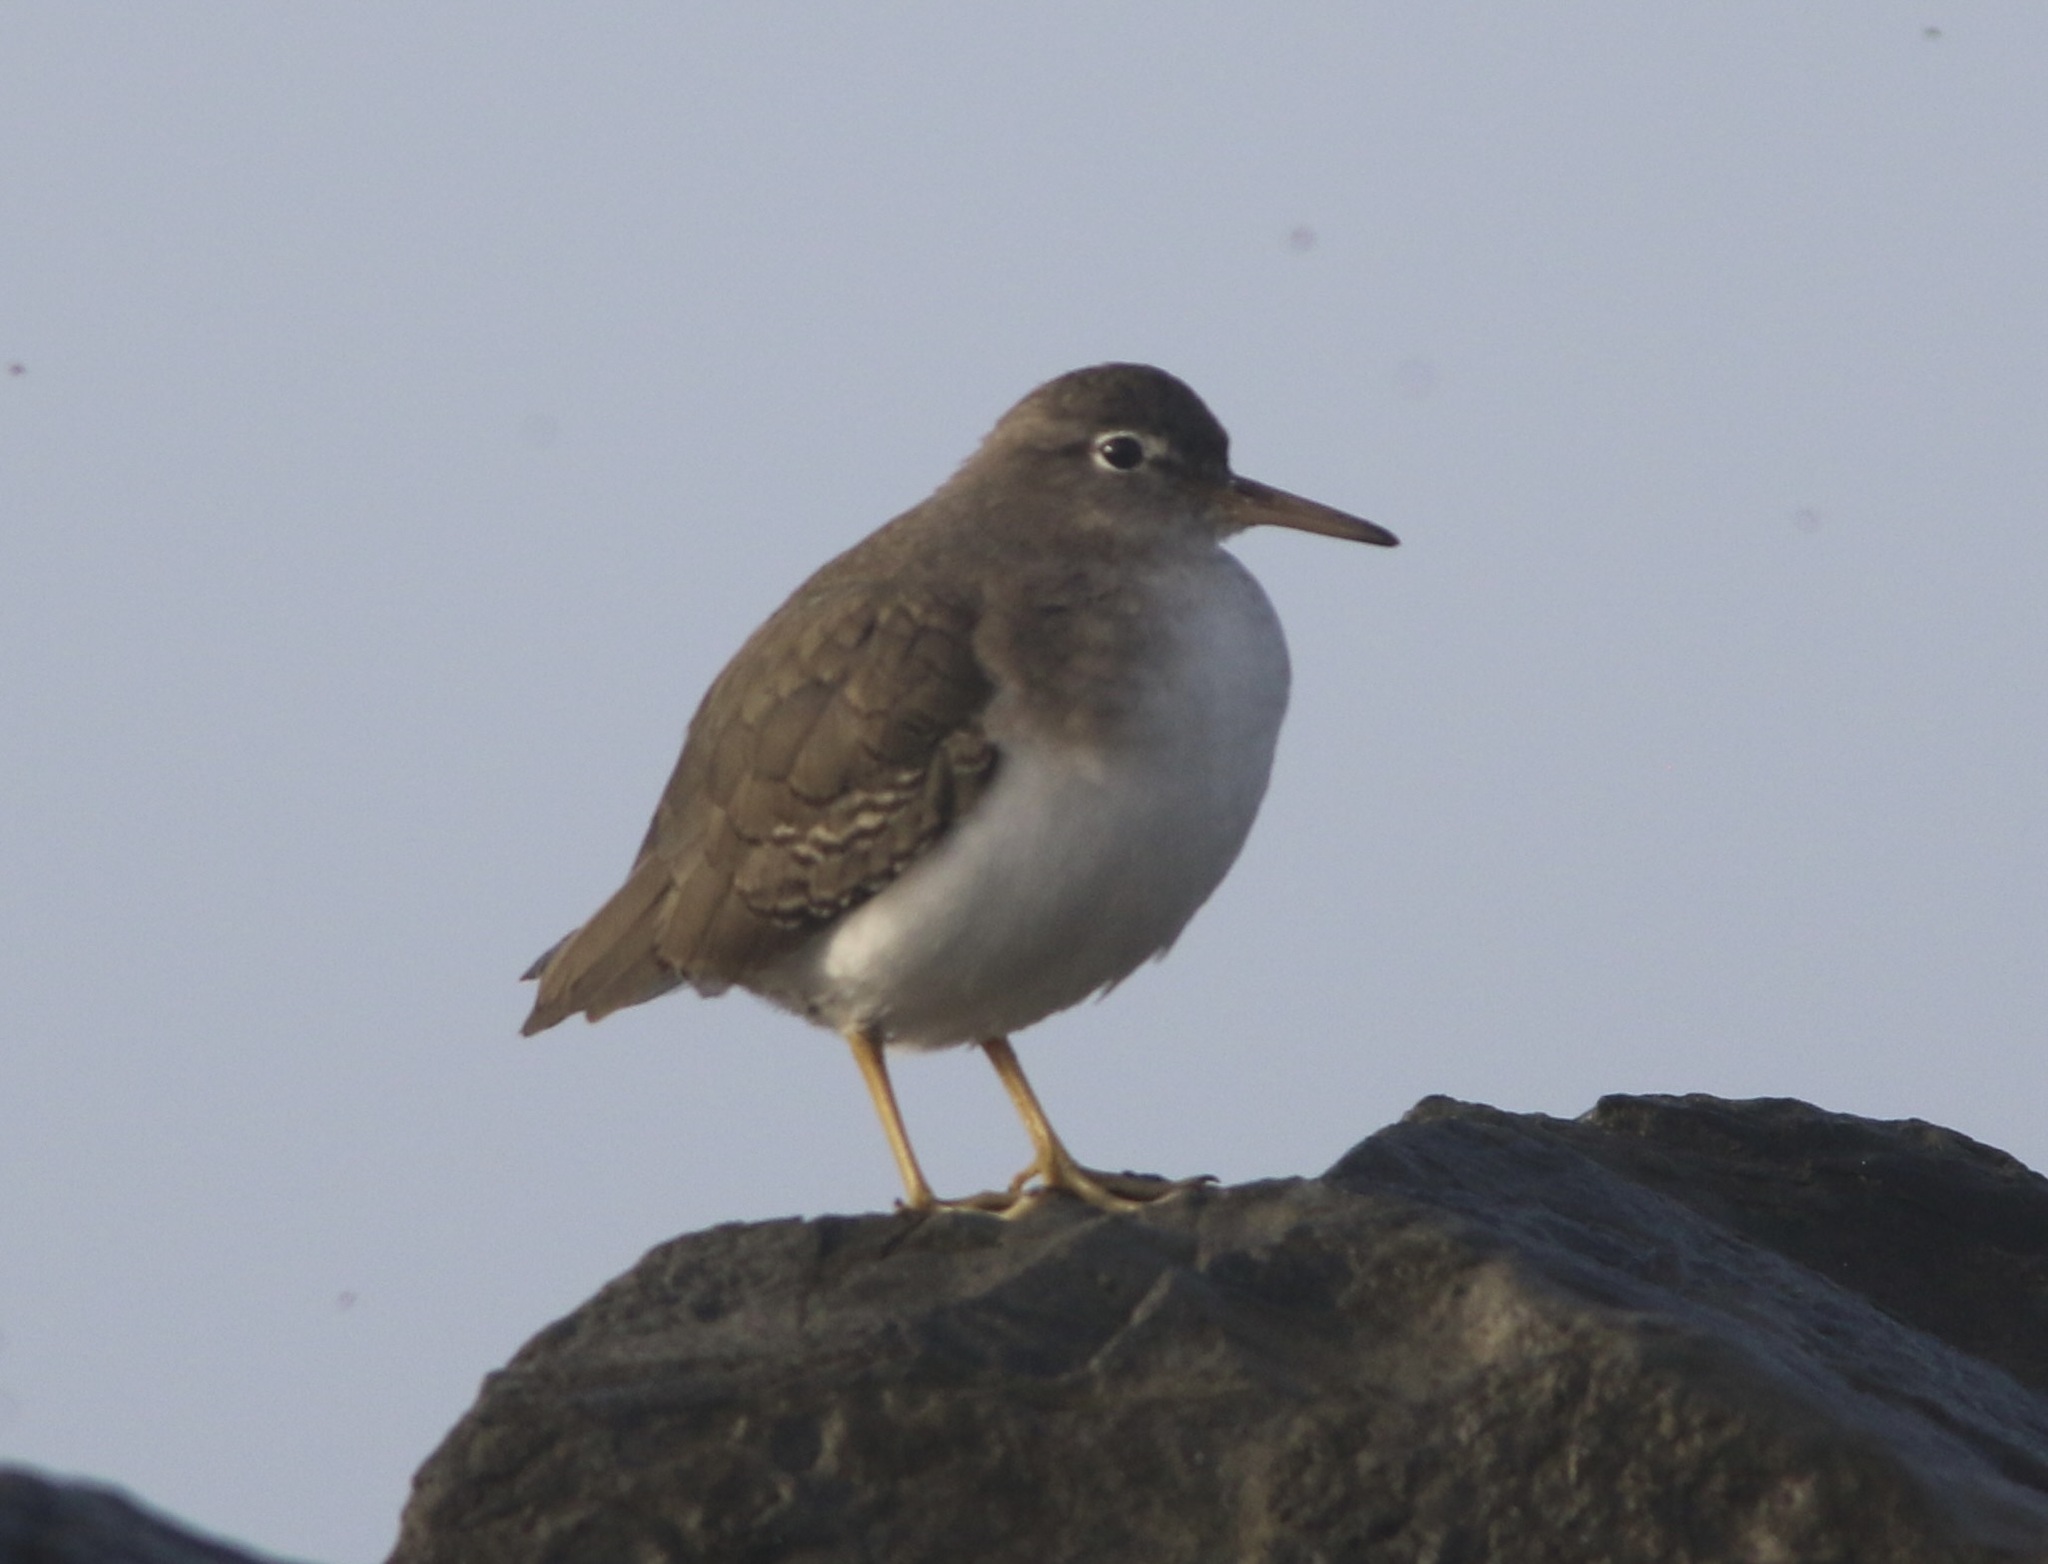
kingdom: Animalia
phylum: Chordata
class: Aves
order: Charadriiformes
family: Scolopacidae
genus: Actitis
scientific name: Actitis macularius
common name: Spotted sandpiper
